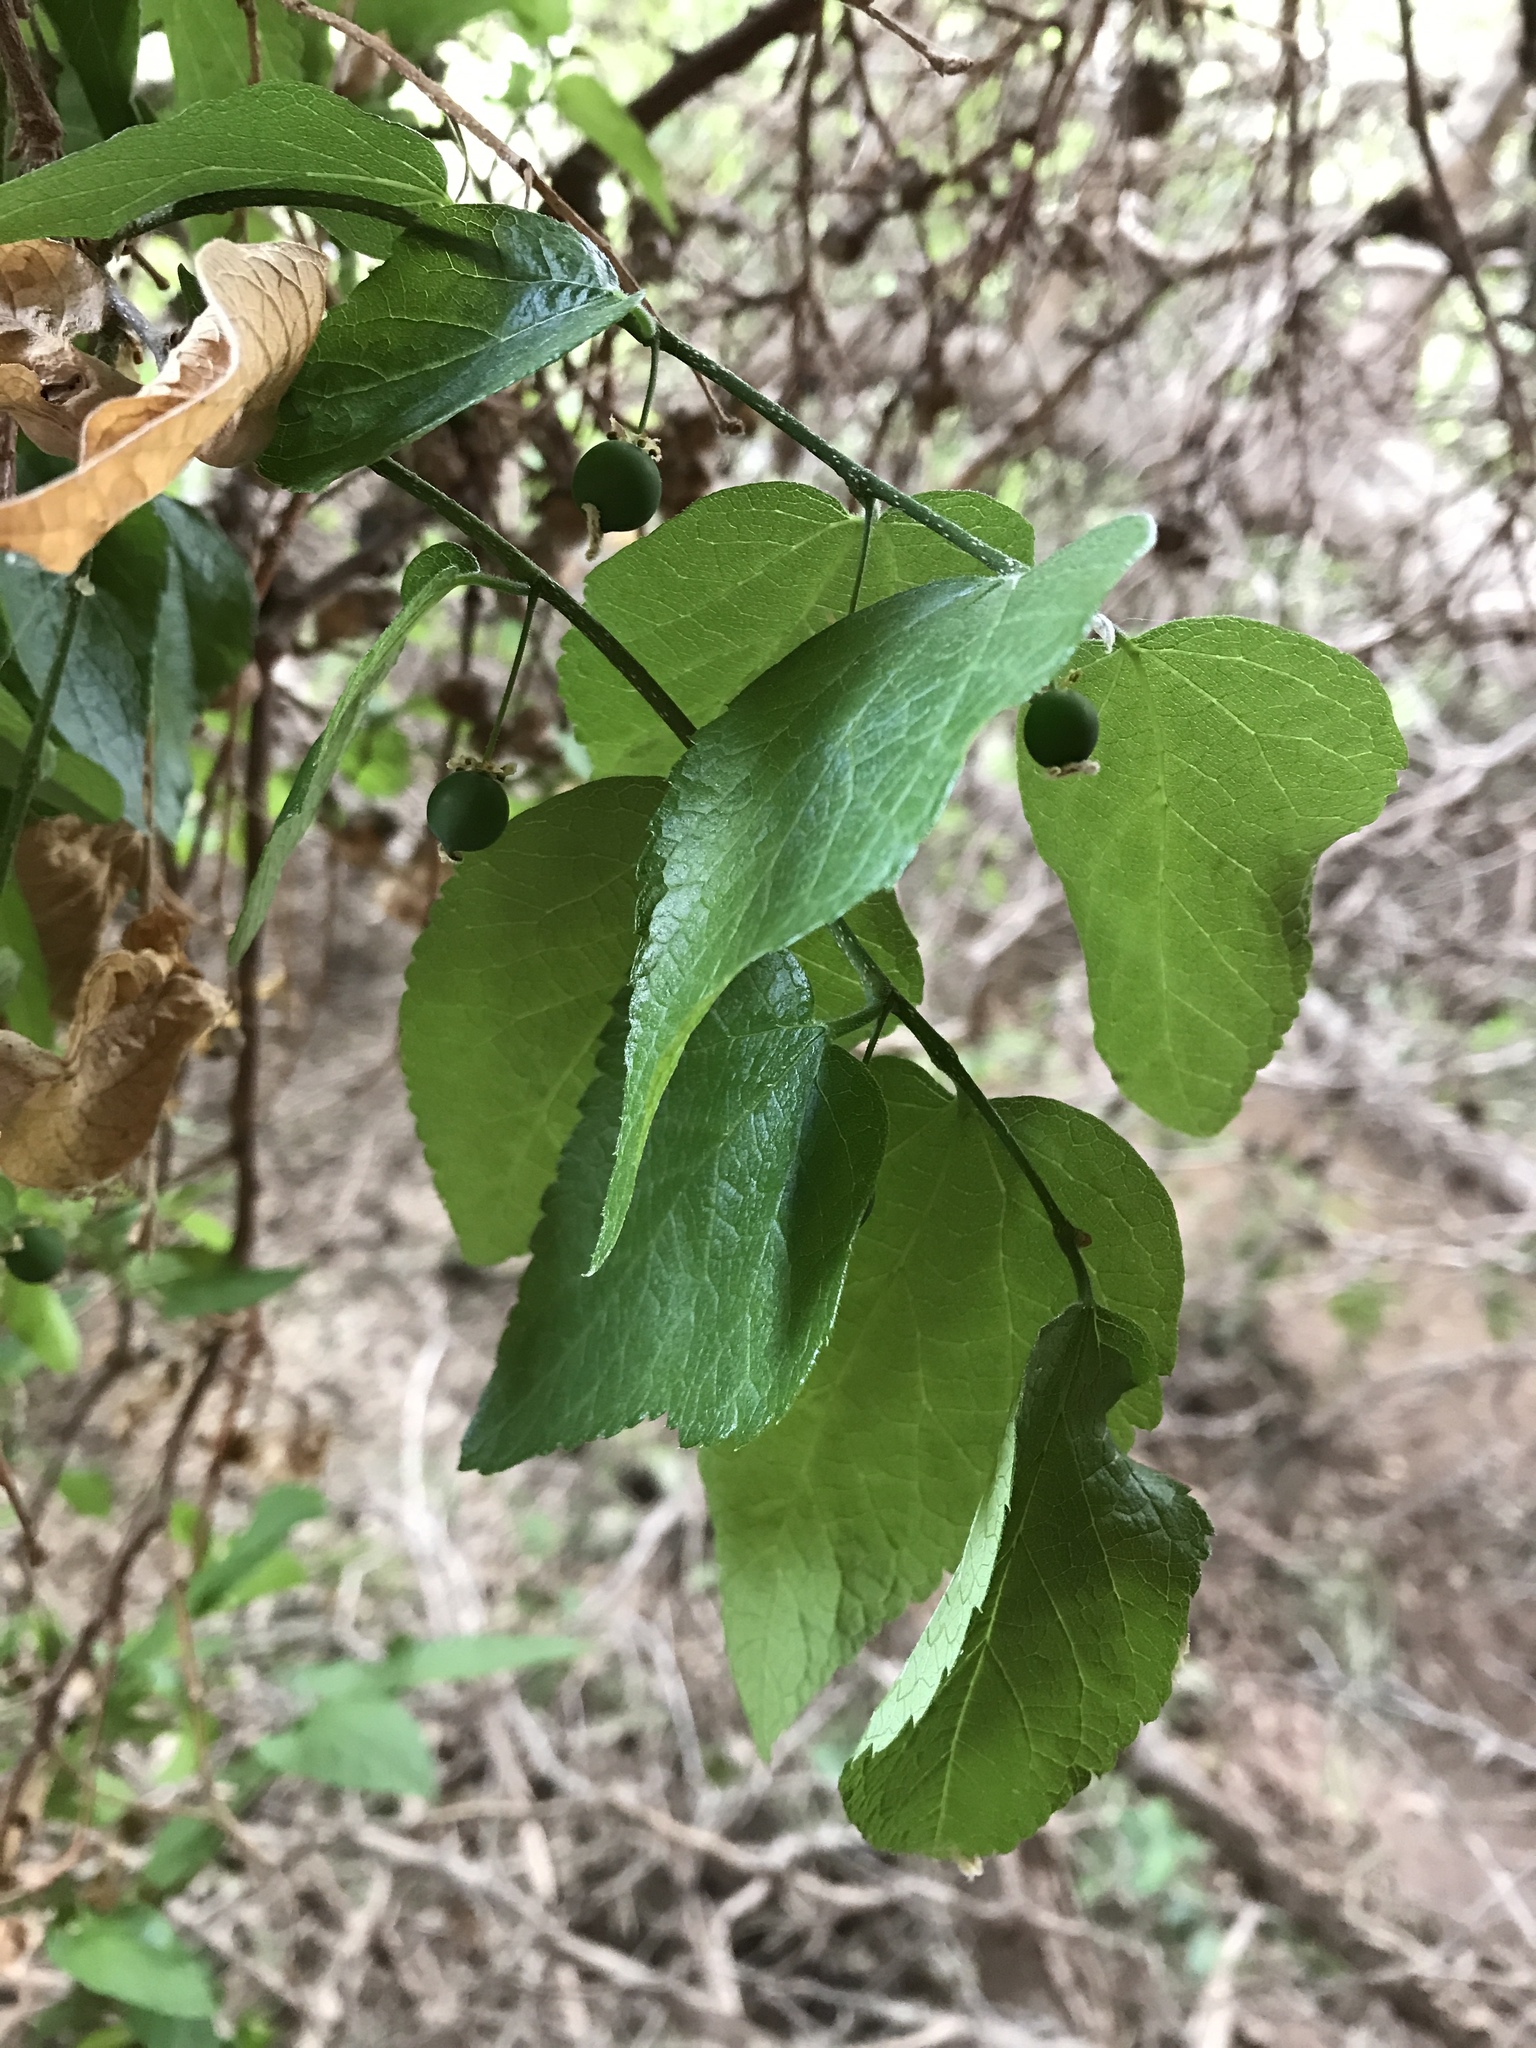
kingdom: Plantae
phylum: Tracheophyta
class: Magnoliopsida
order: Rosales
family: Cannabaceae
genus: Celtis
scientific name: Celtis reticulata
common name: Netleaf hackberry
